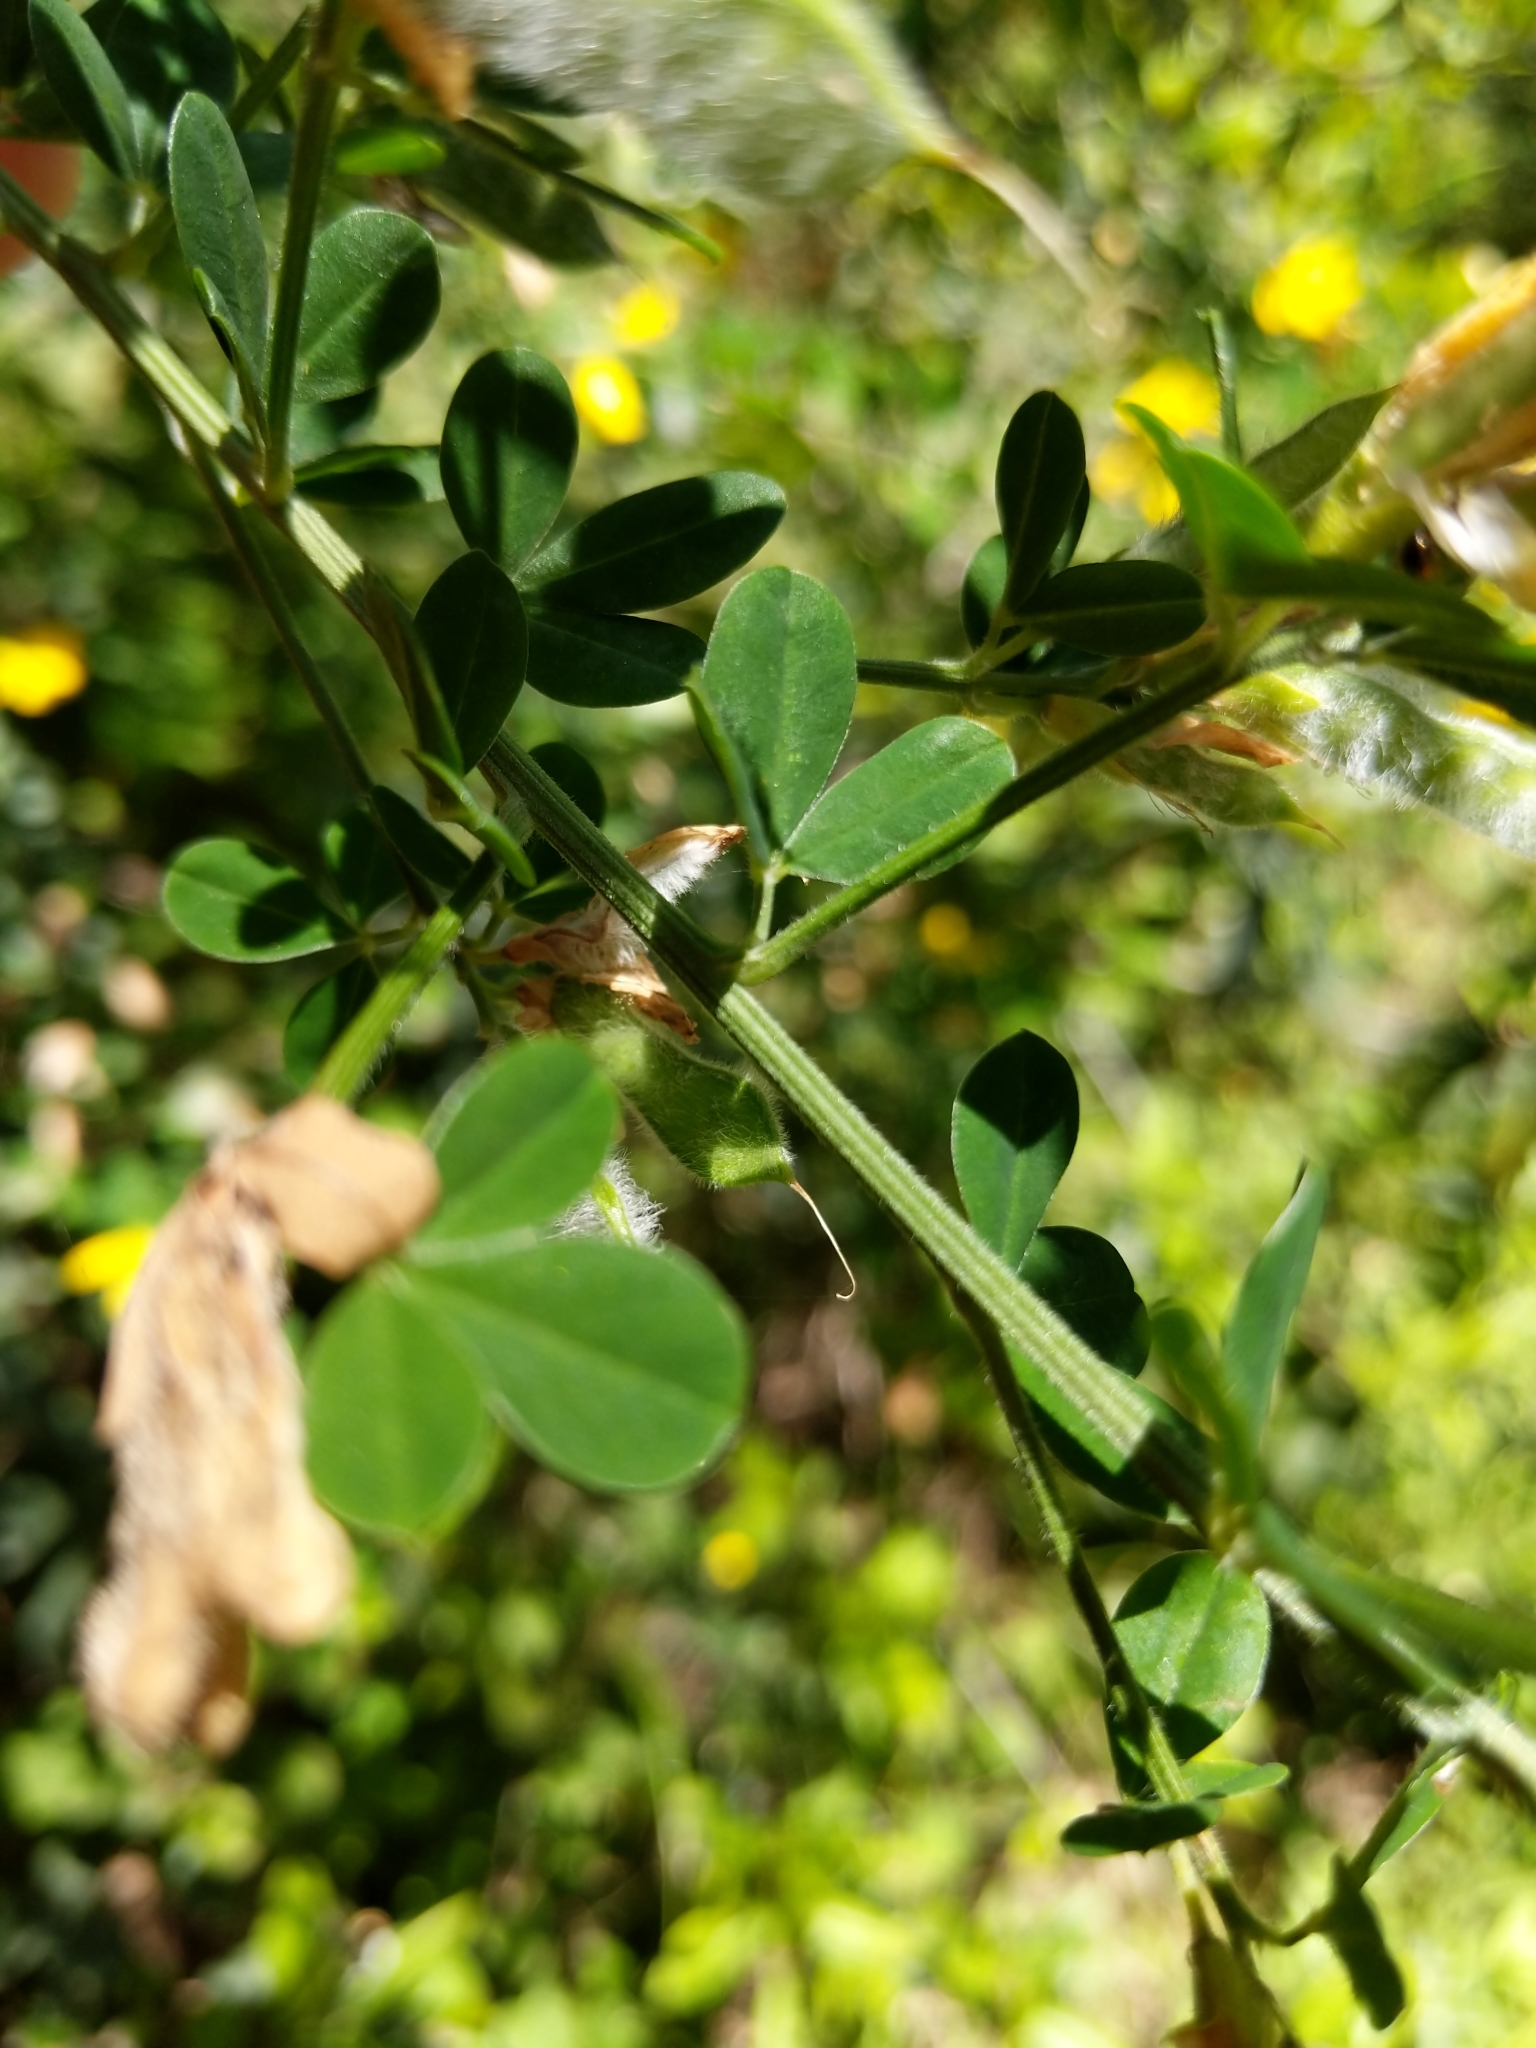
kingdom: Plantae
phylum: Tracheophyta
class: Magnoliopsida
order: Fabales
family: Fabaceae
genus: Genista
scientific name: Genista monspessulana
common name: Montpellier broom
